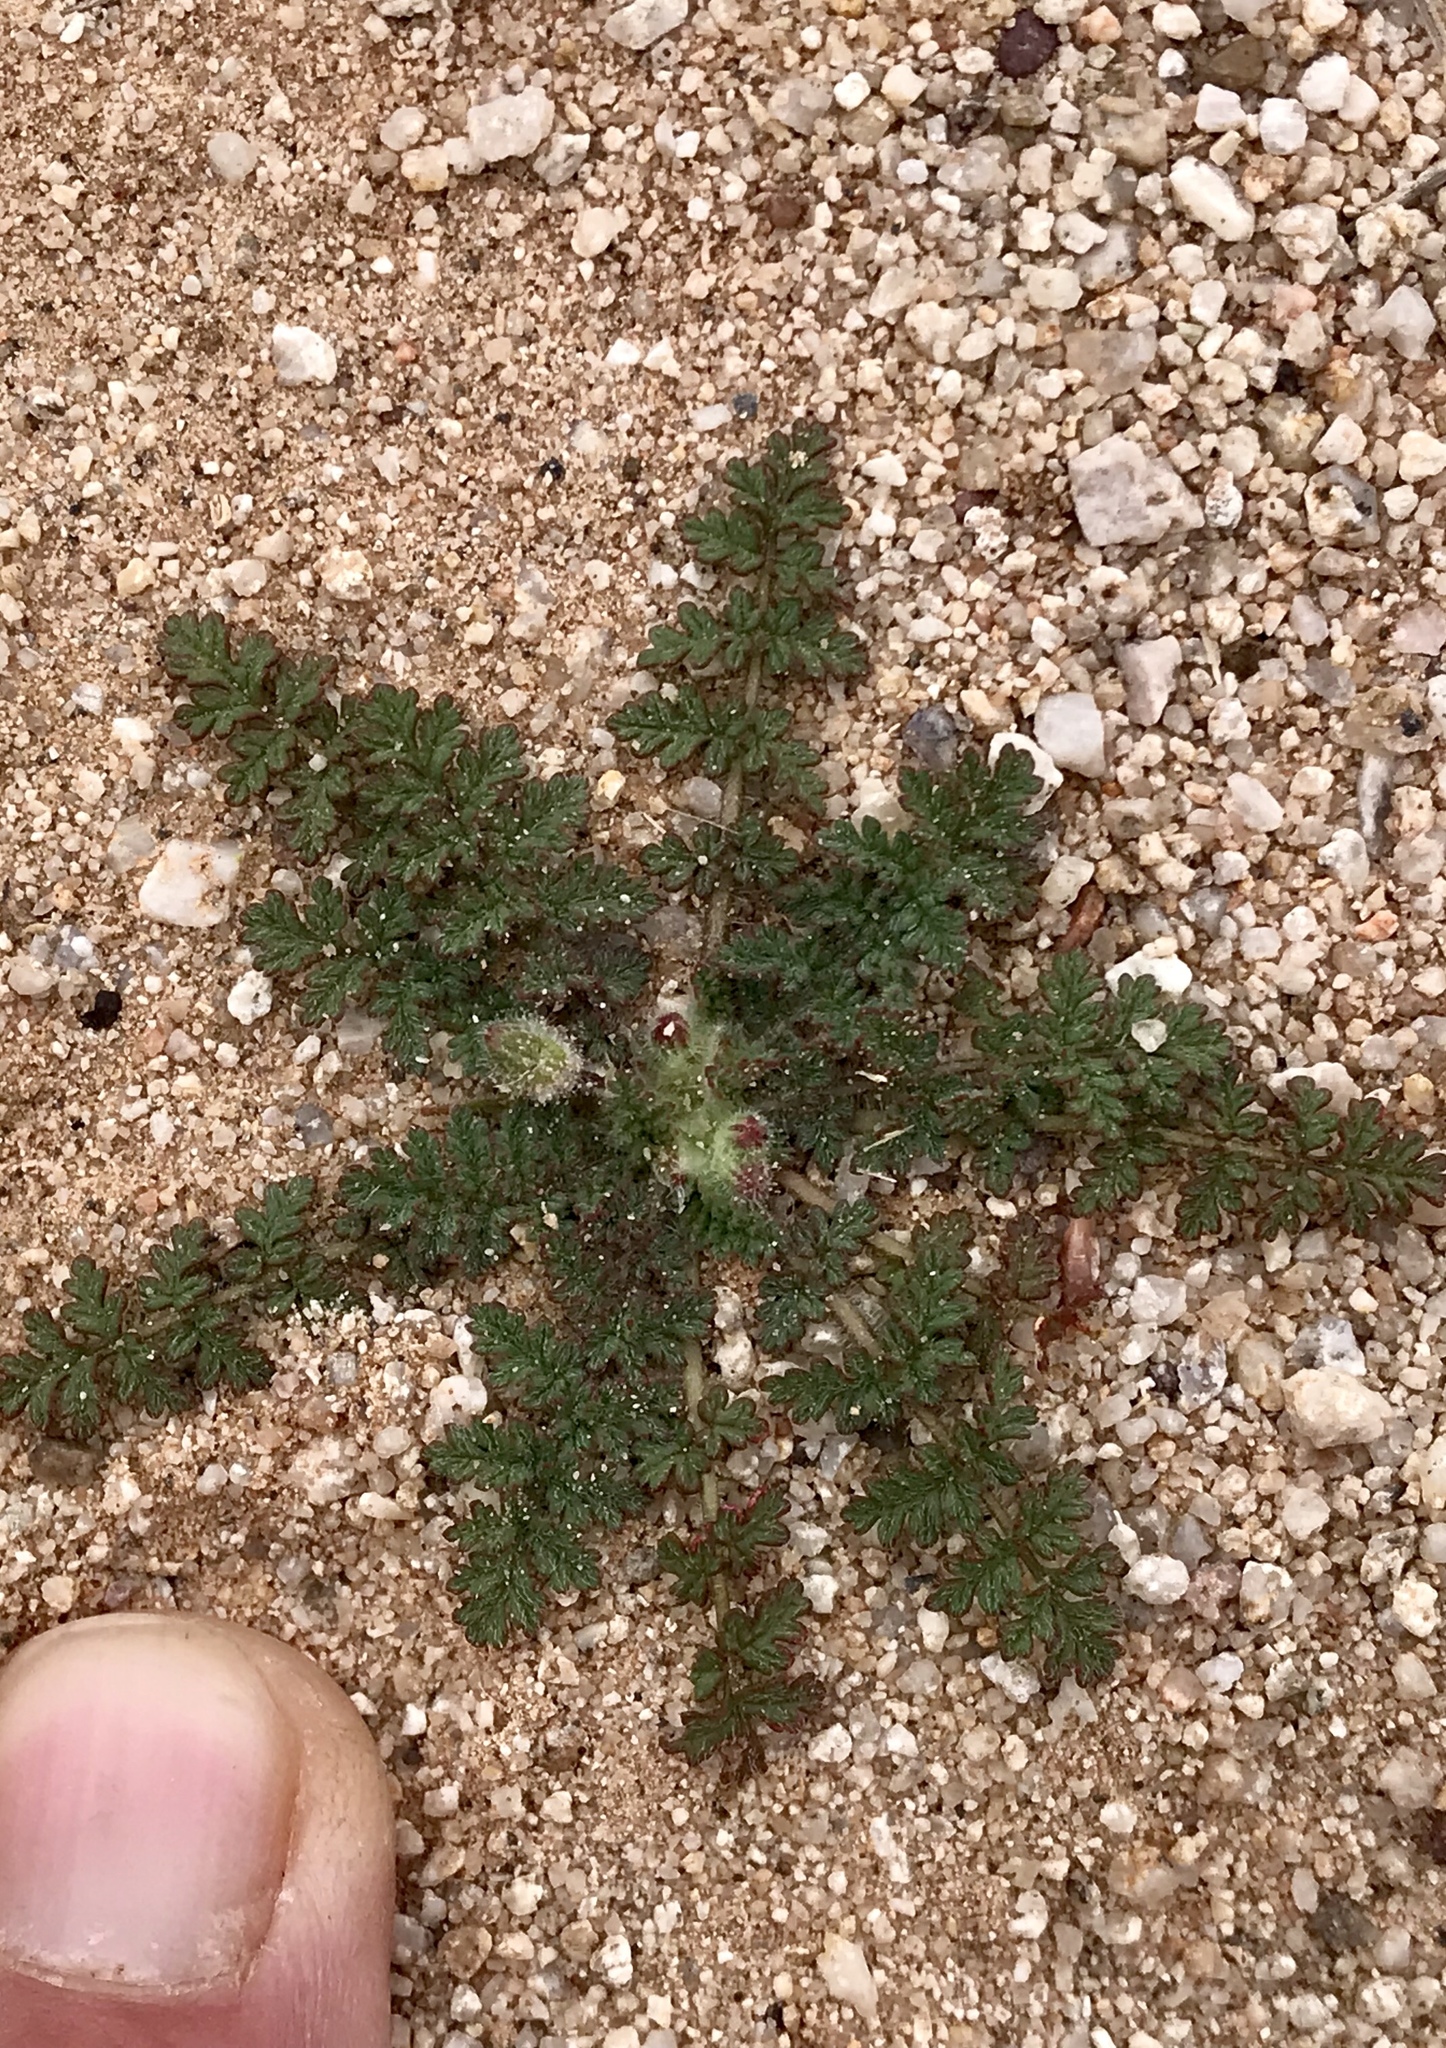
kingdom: Plantae
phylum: Tracheophyta
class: Magnoliopsida
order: Geraniales
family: Geraniaceae
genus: Erodium
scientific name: Erodium cicutarium
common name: Common stork's-bill
